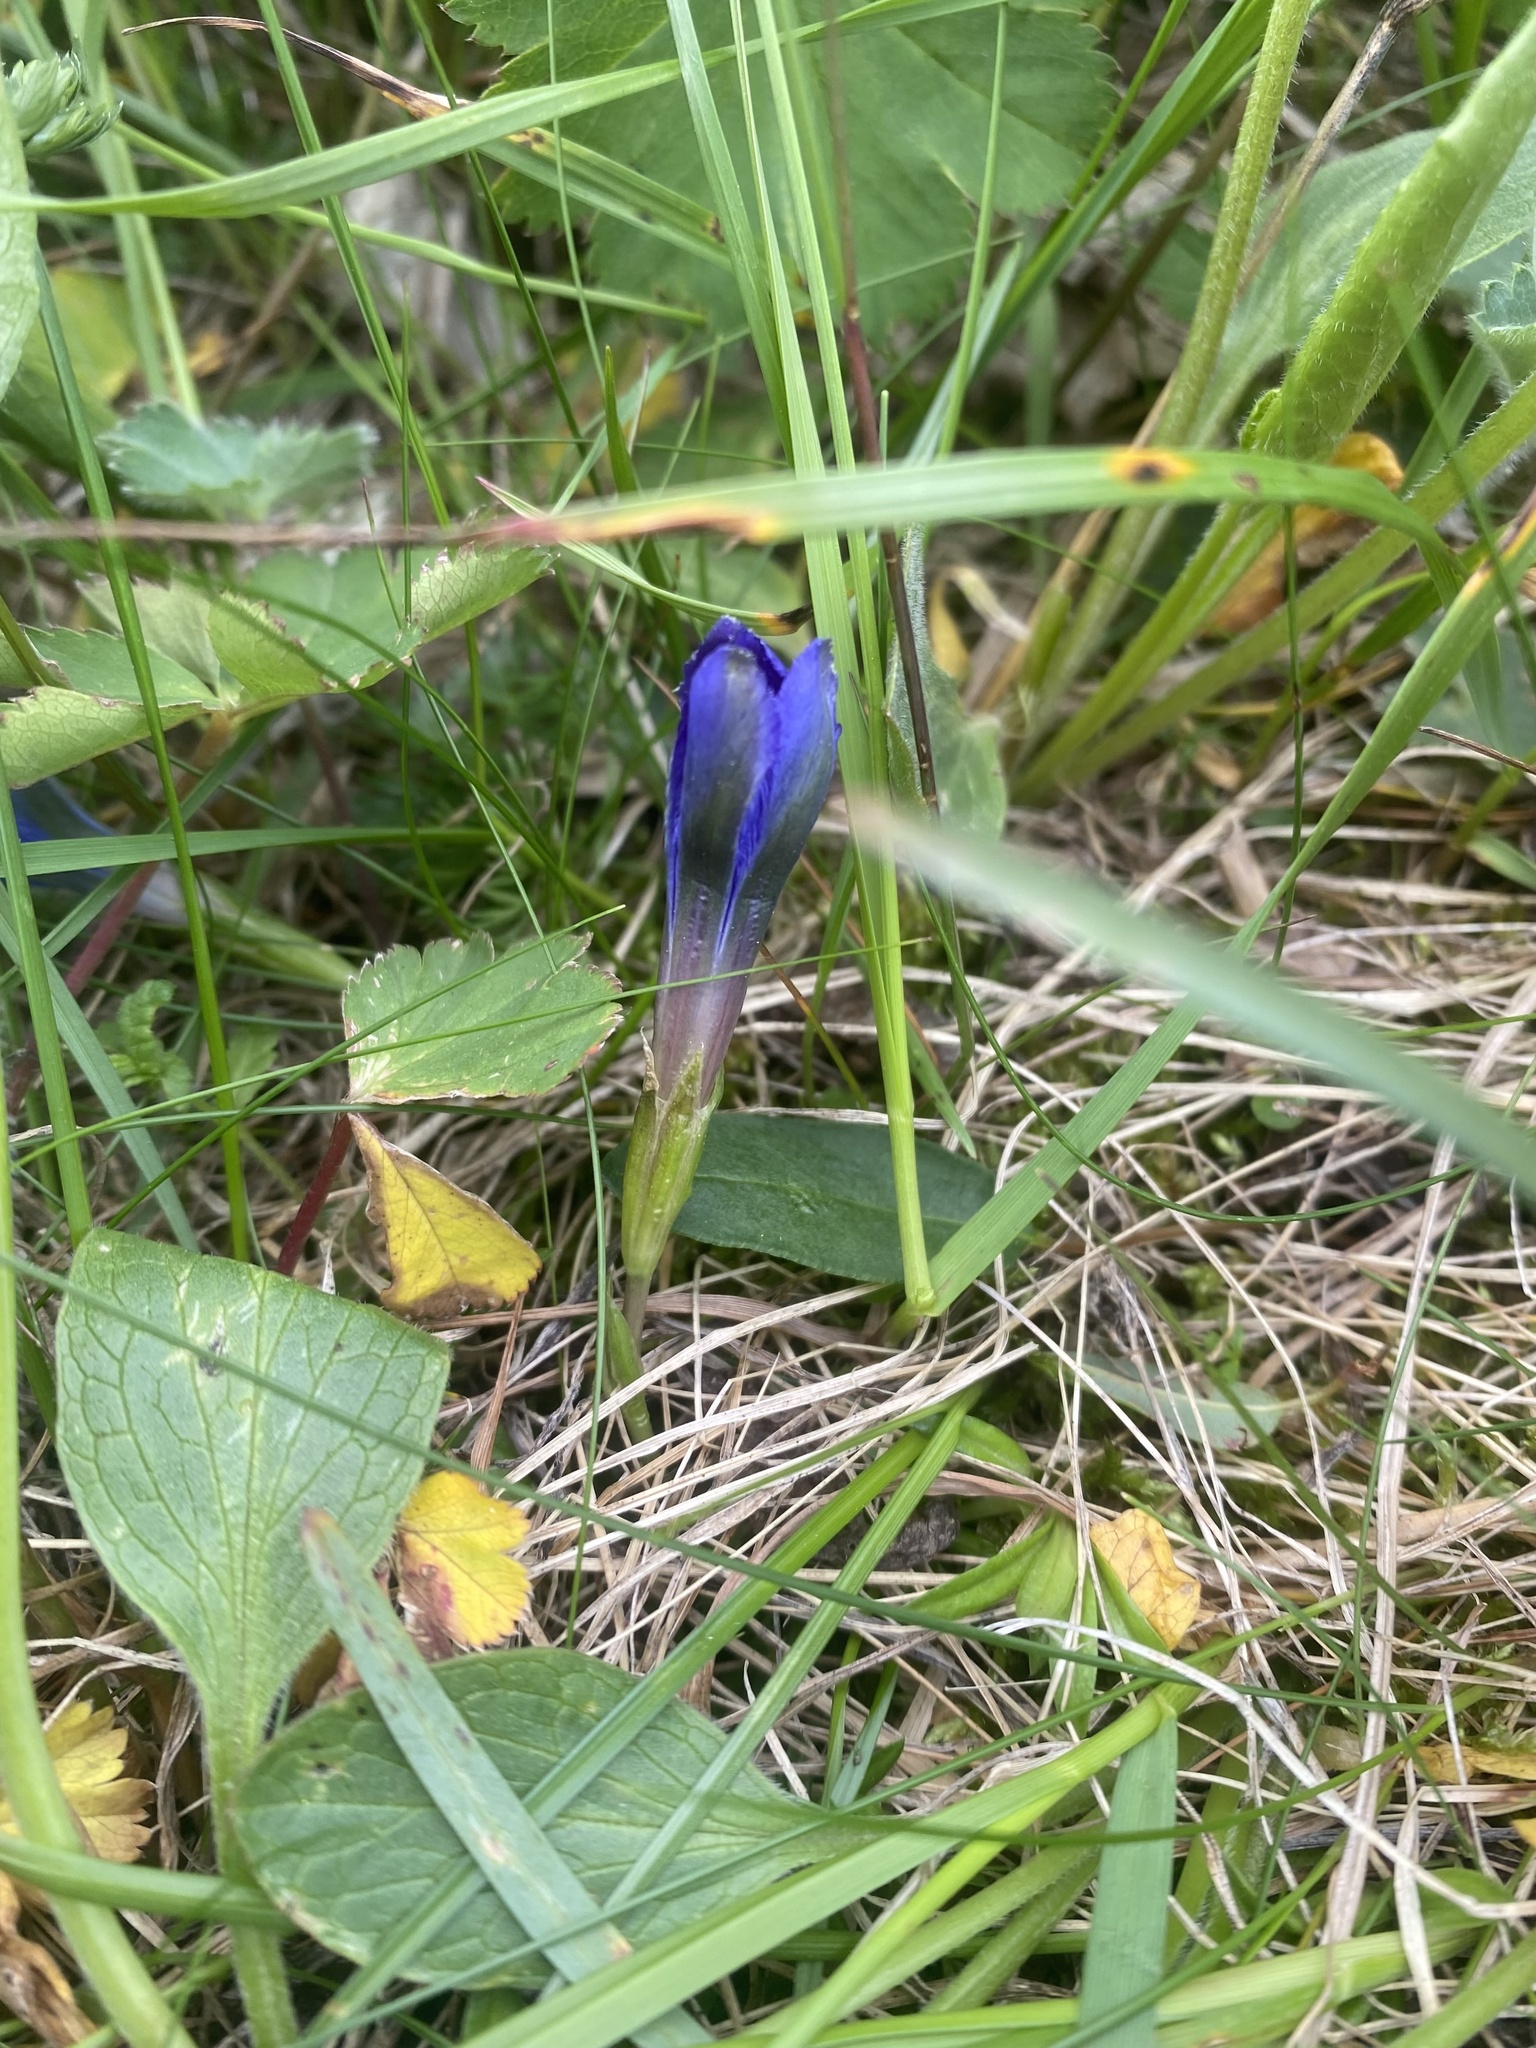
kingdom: Plantae
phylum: Tracheophyta
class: Magnoliopsida
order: Gentianales
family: Gentianaceae
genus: Gentiana
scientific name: Gentiana dshimilensis
